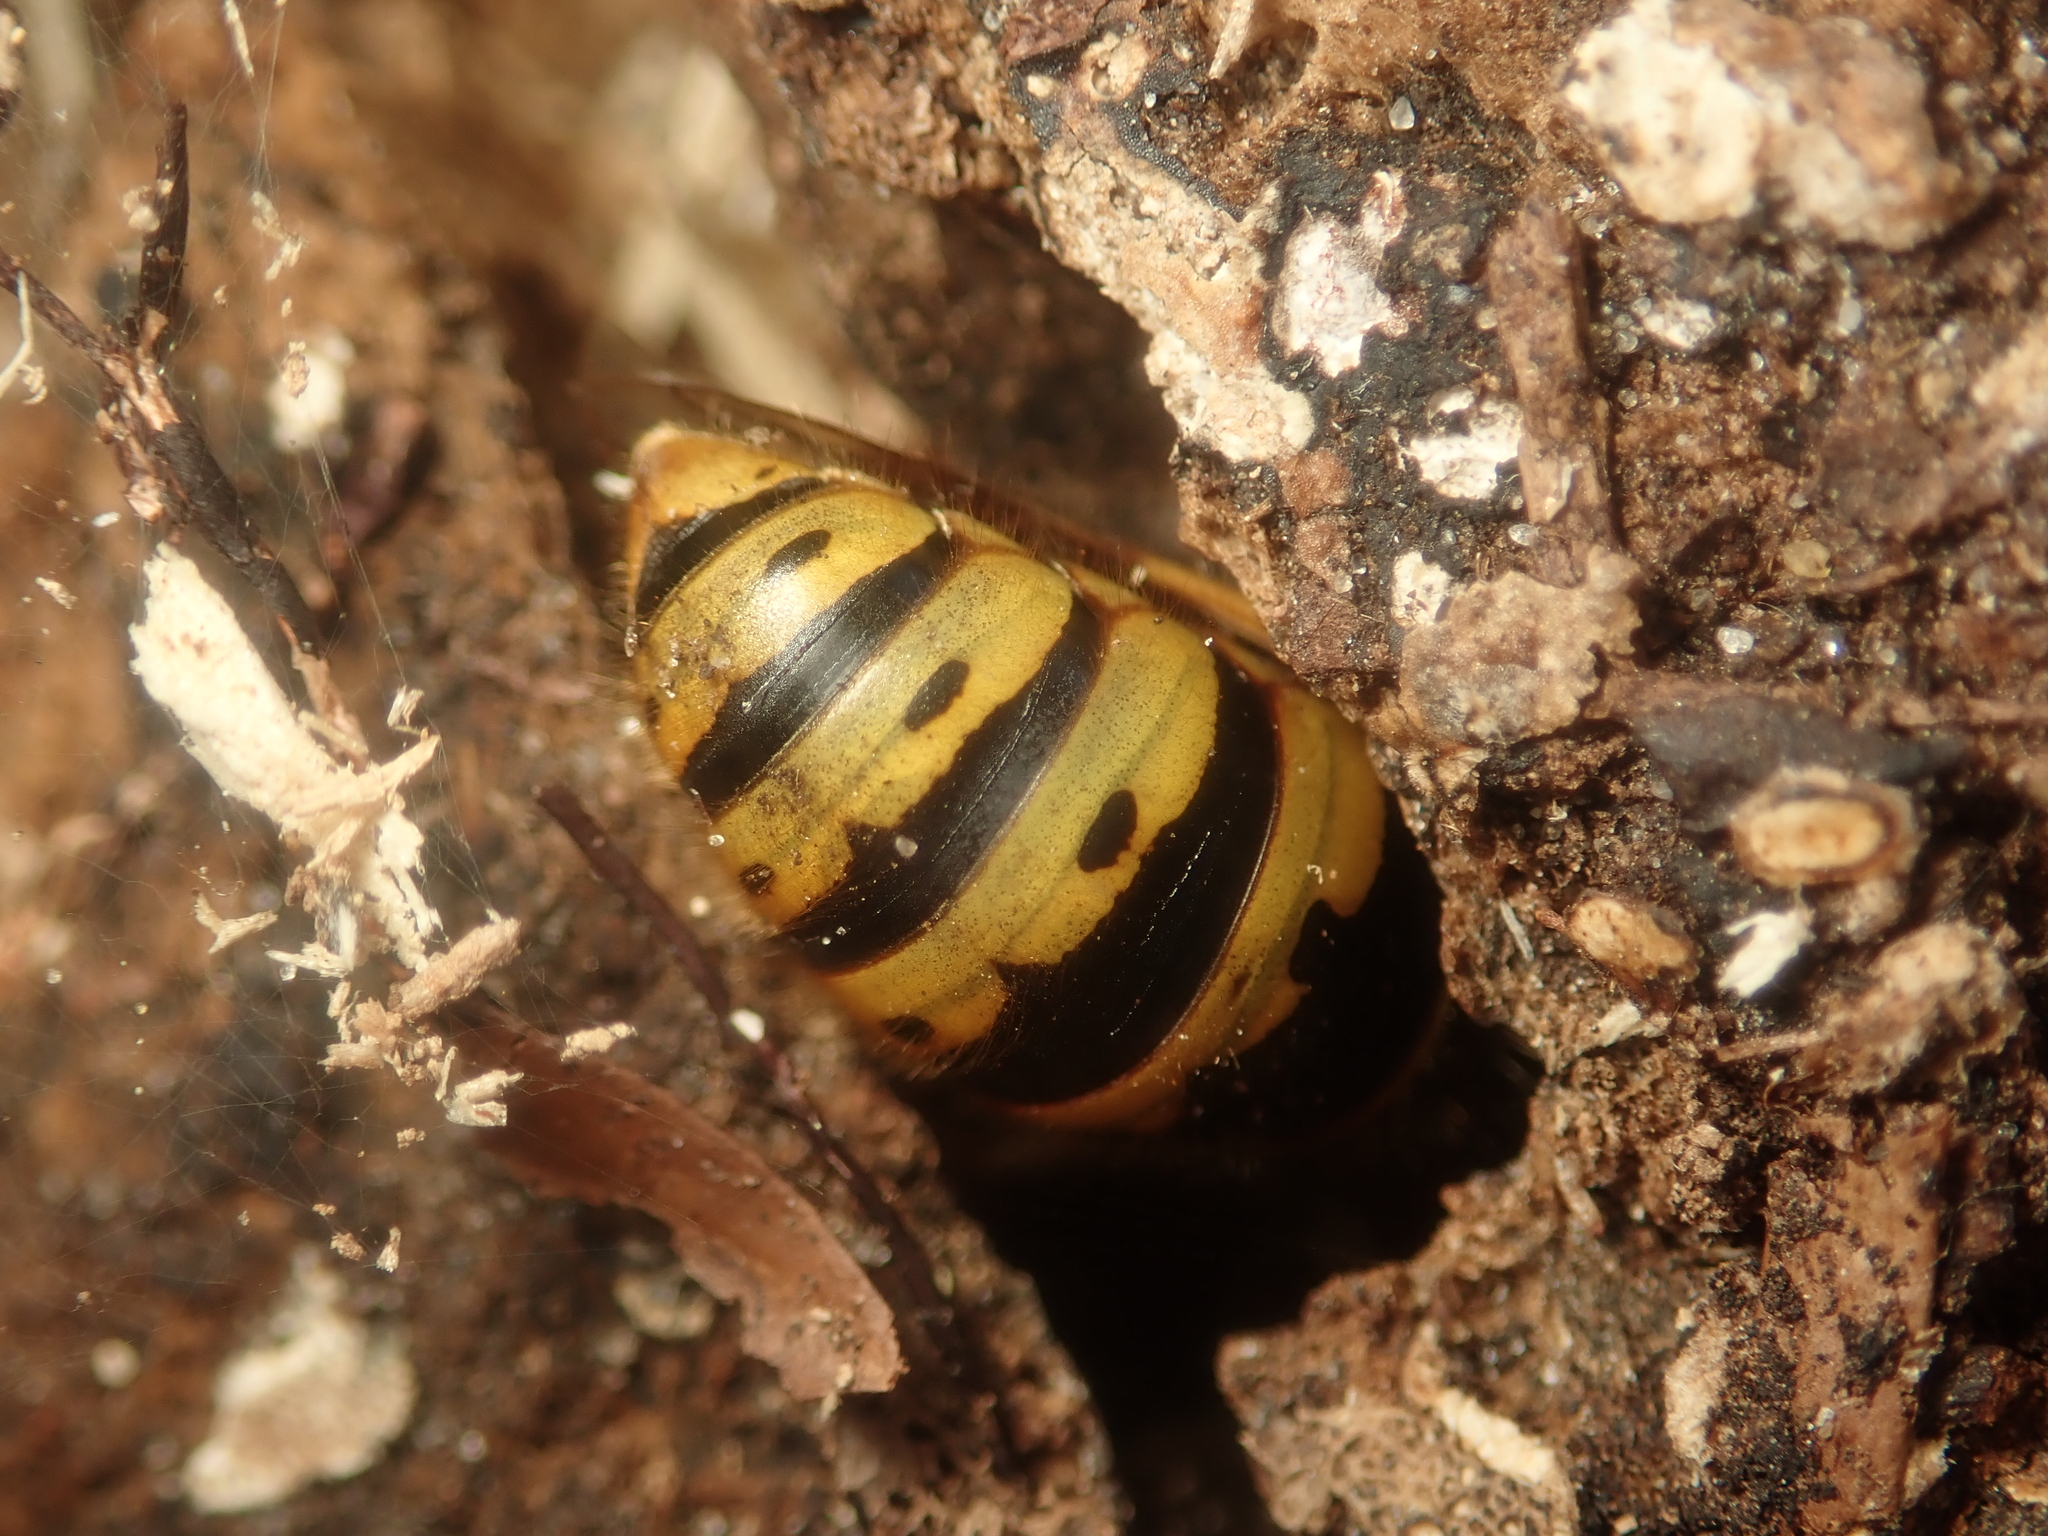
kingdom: Animalia
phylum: Arthropoda
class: Insecta
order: Hymenoptera
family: Vespidae
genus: Vespula
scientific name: Vespula vulgaris
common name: Common wasp
